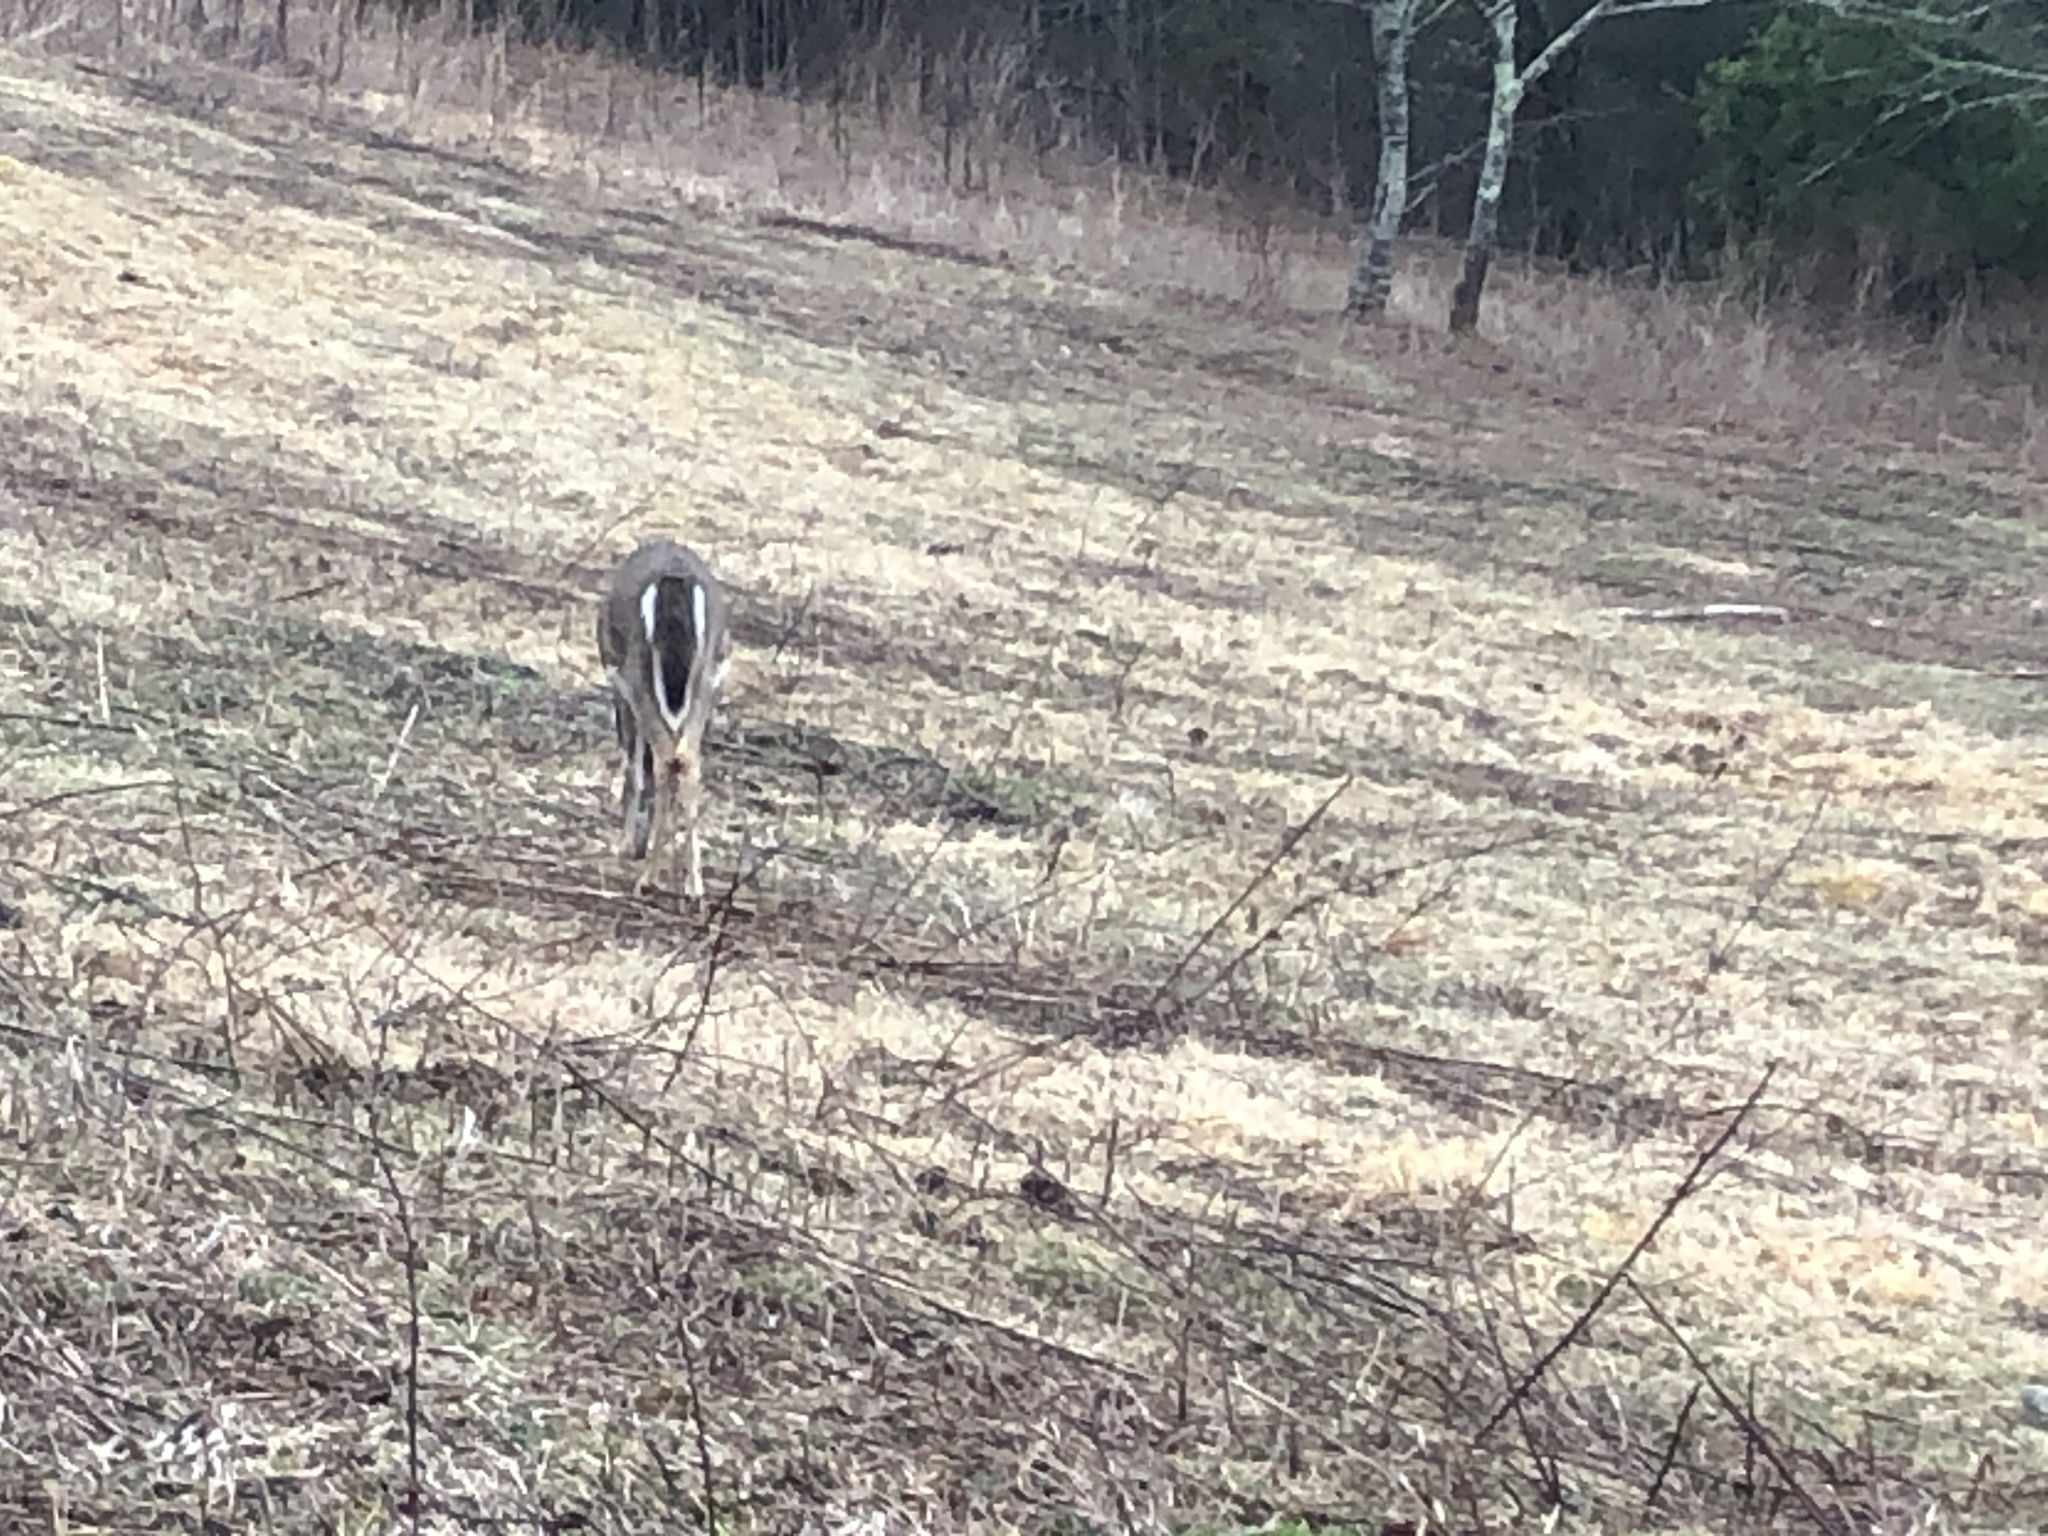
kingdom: Animalia
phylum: Chordata
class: Mammalia
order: Artiodactyla
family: Cervidae
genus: Odocoileus
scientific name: Odocoileus virginianus
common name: White-tailed deer
